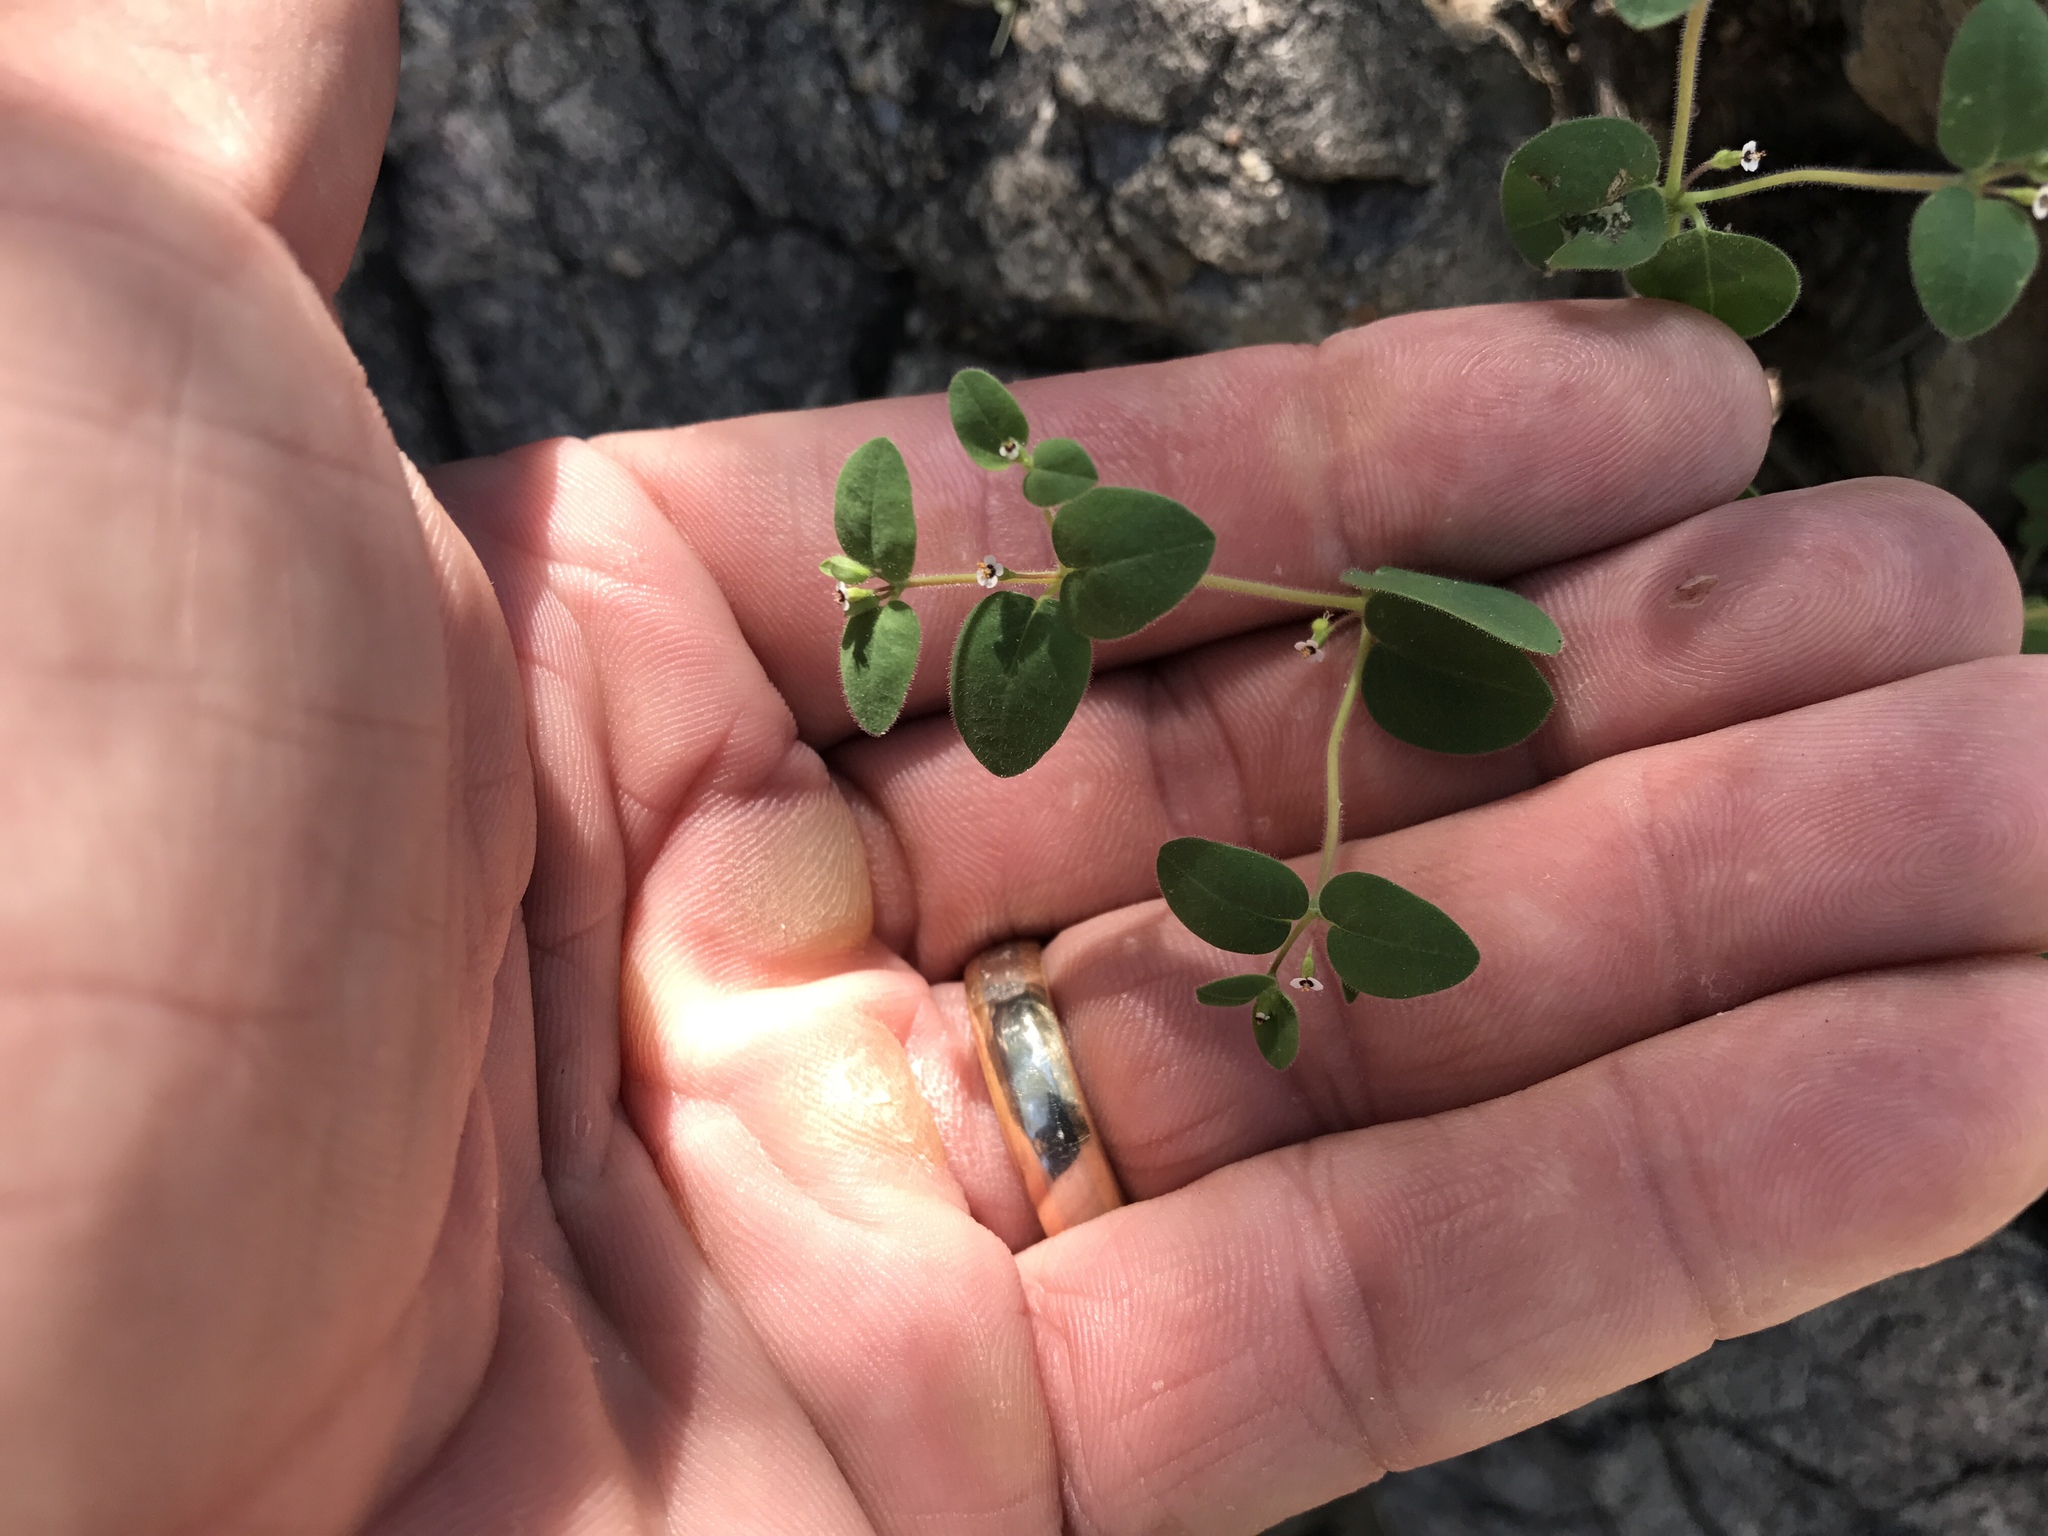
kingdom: Plantae
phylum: Tracheophyta
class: Magnoliopsida
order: Malpighiales
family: Euphorbiaceae
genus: Euphorbia
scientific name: Euphorbia arizonica
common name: Arizona spurge
